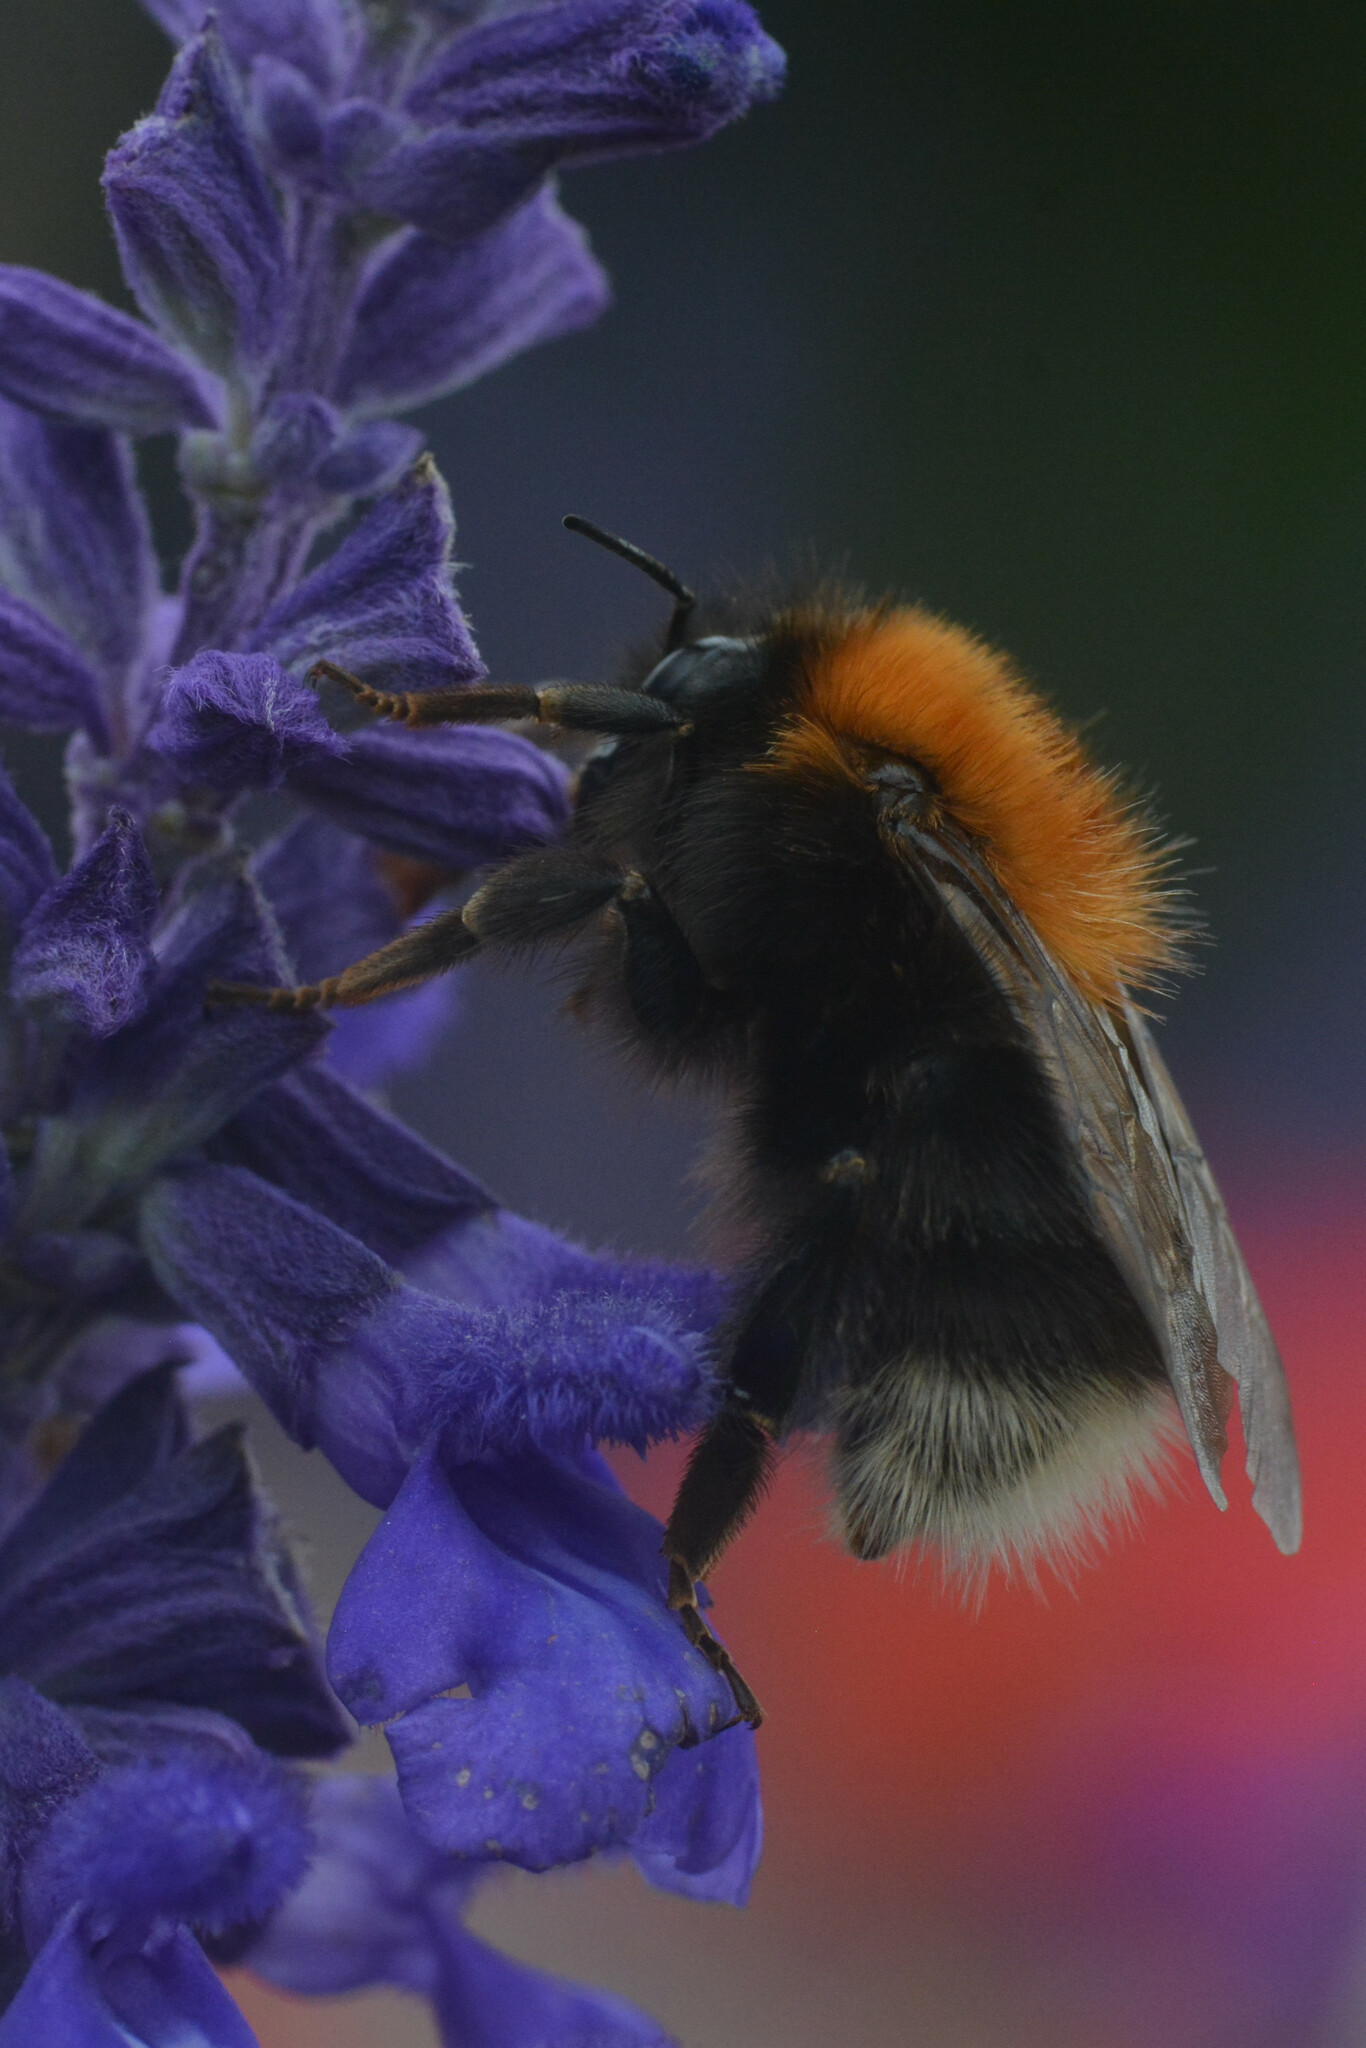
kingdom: Animalia
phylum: Arthropoda
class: Insecta
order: Hymenoptera
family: Apidae
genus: Bombus
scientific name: Bombus hypnorum
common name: New garden bumblebee
